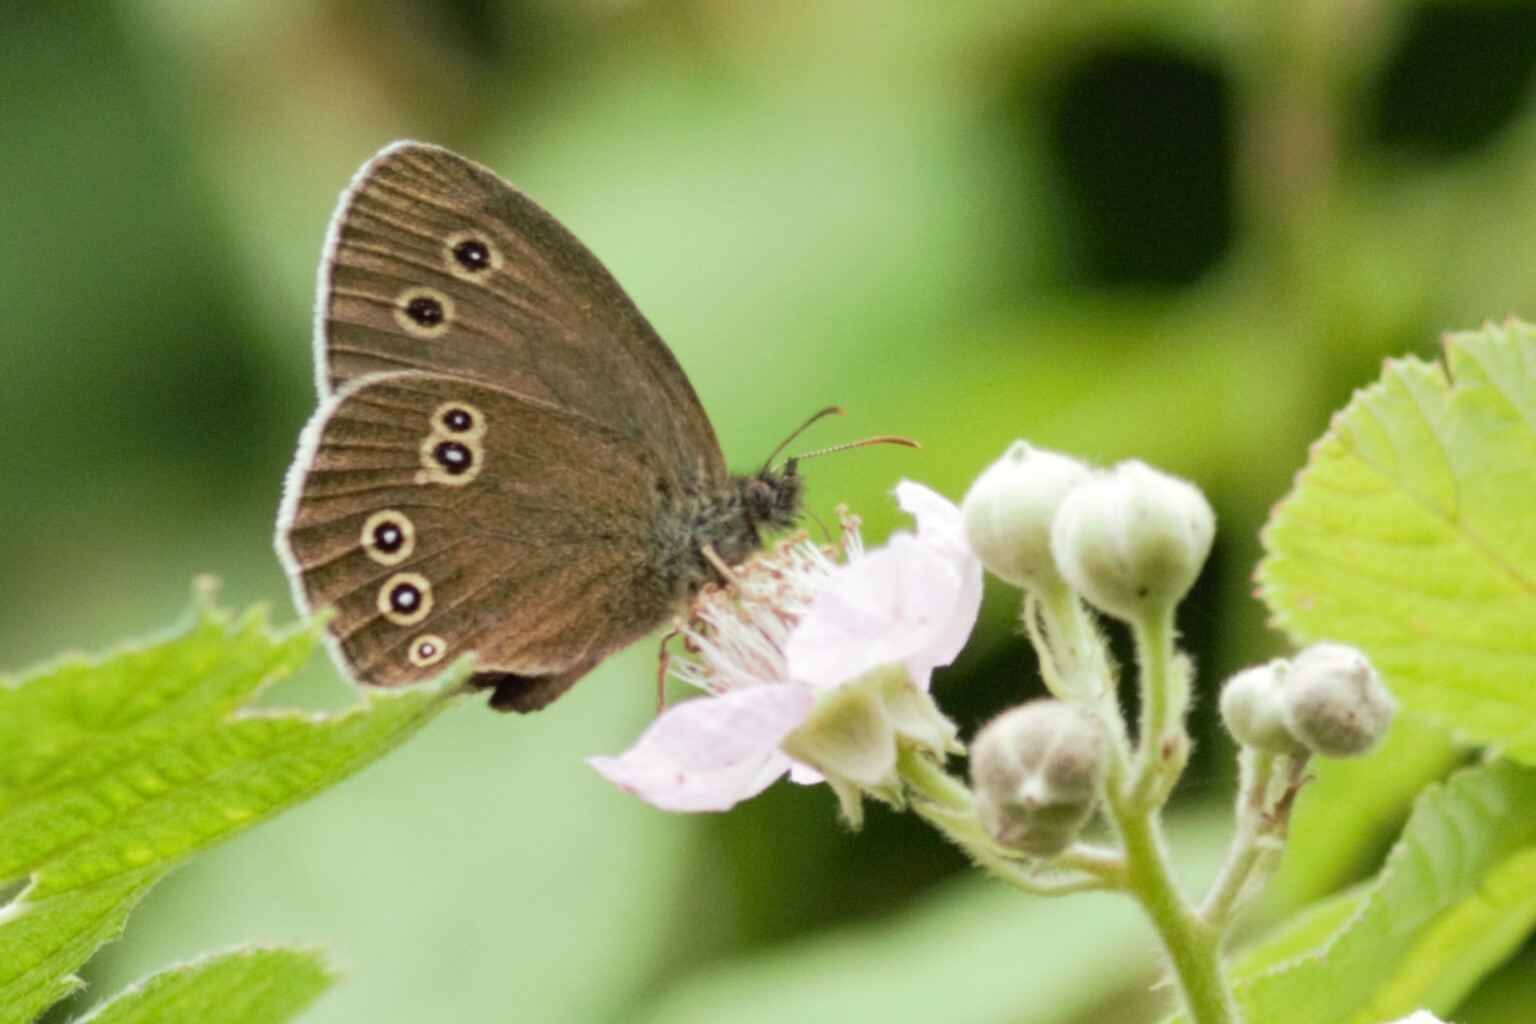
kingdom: Animalia
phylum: Arthropoda
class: Insecta
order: Lepidoptera
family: Nymphalidae
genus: Aphantopus
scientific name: Aphantopus hyperantus
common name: Ringlet
